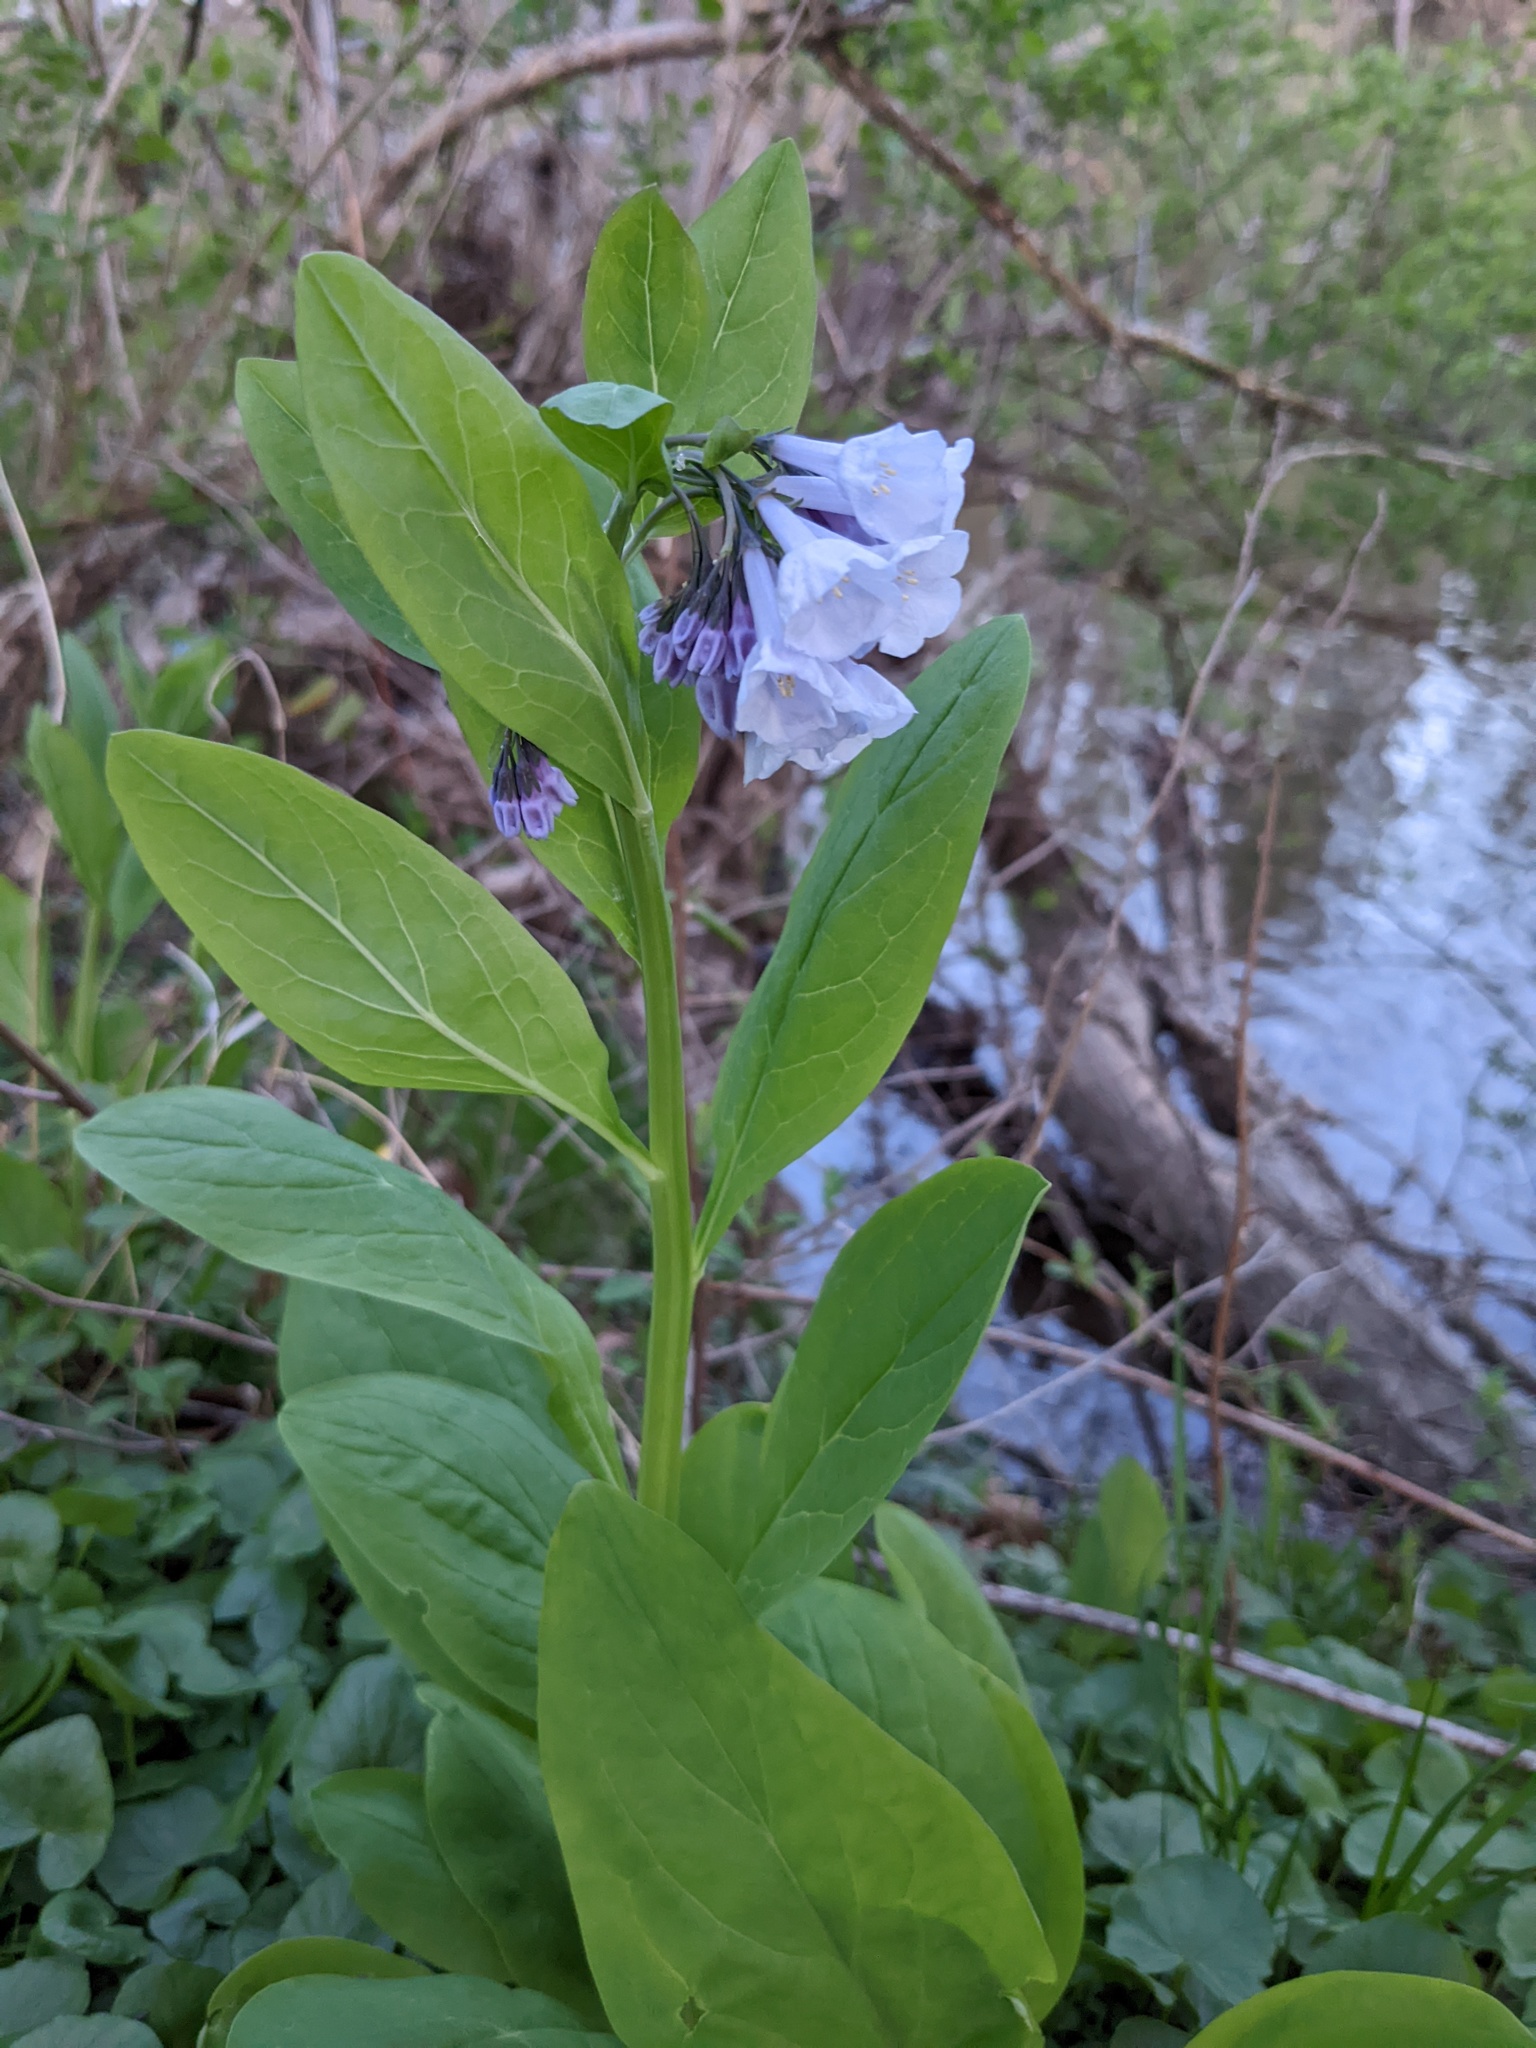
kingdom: Plantae
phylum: Tracheophyta
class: Magnoliopsida
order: Boraginales
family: Boraginaceae
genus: Mertensia
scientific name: Mertensia virginica
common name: Virginia bluebells
